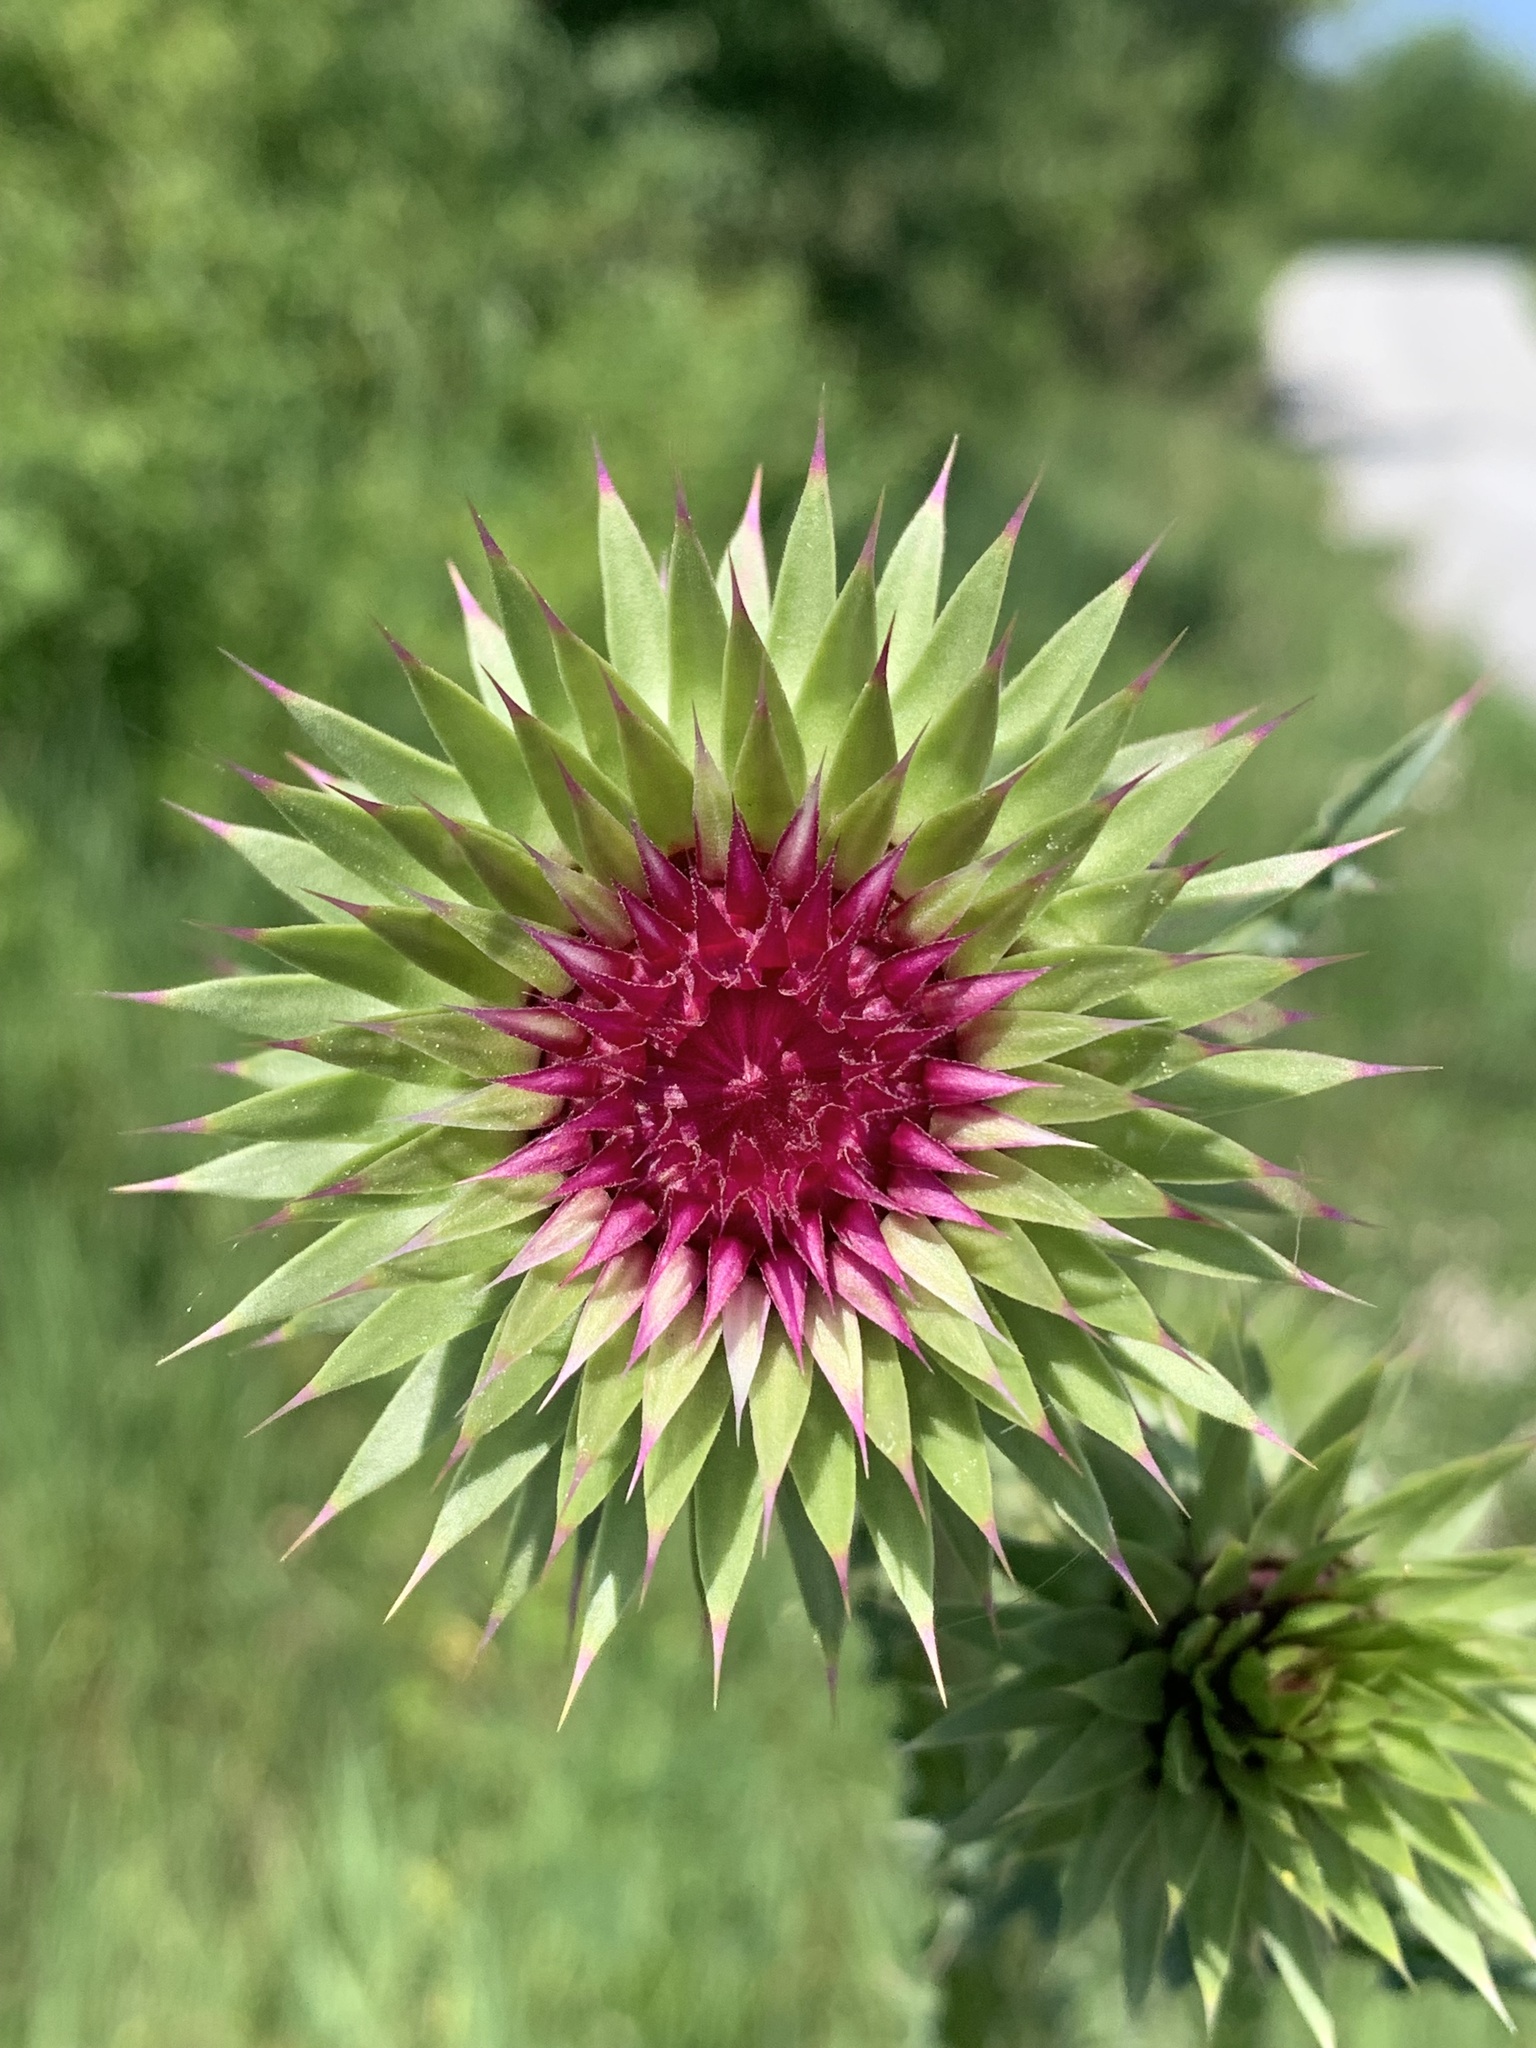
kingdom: Plantae
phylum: Tracheophyta
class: Magnoliopsida
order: Asterales
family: Asteraceae
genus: Carduus
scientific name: Carduus nutans
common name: Musk thistle
